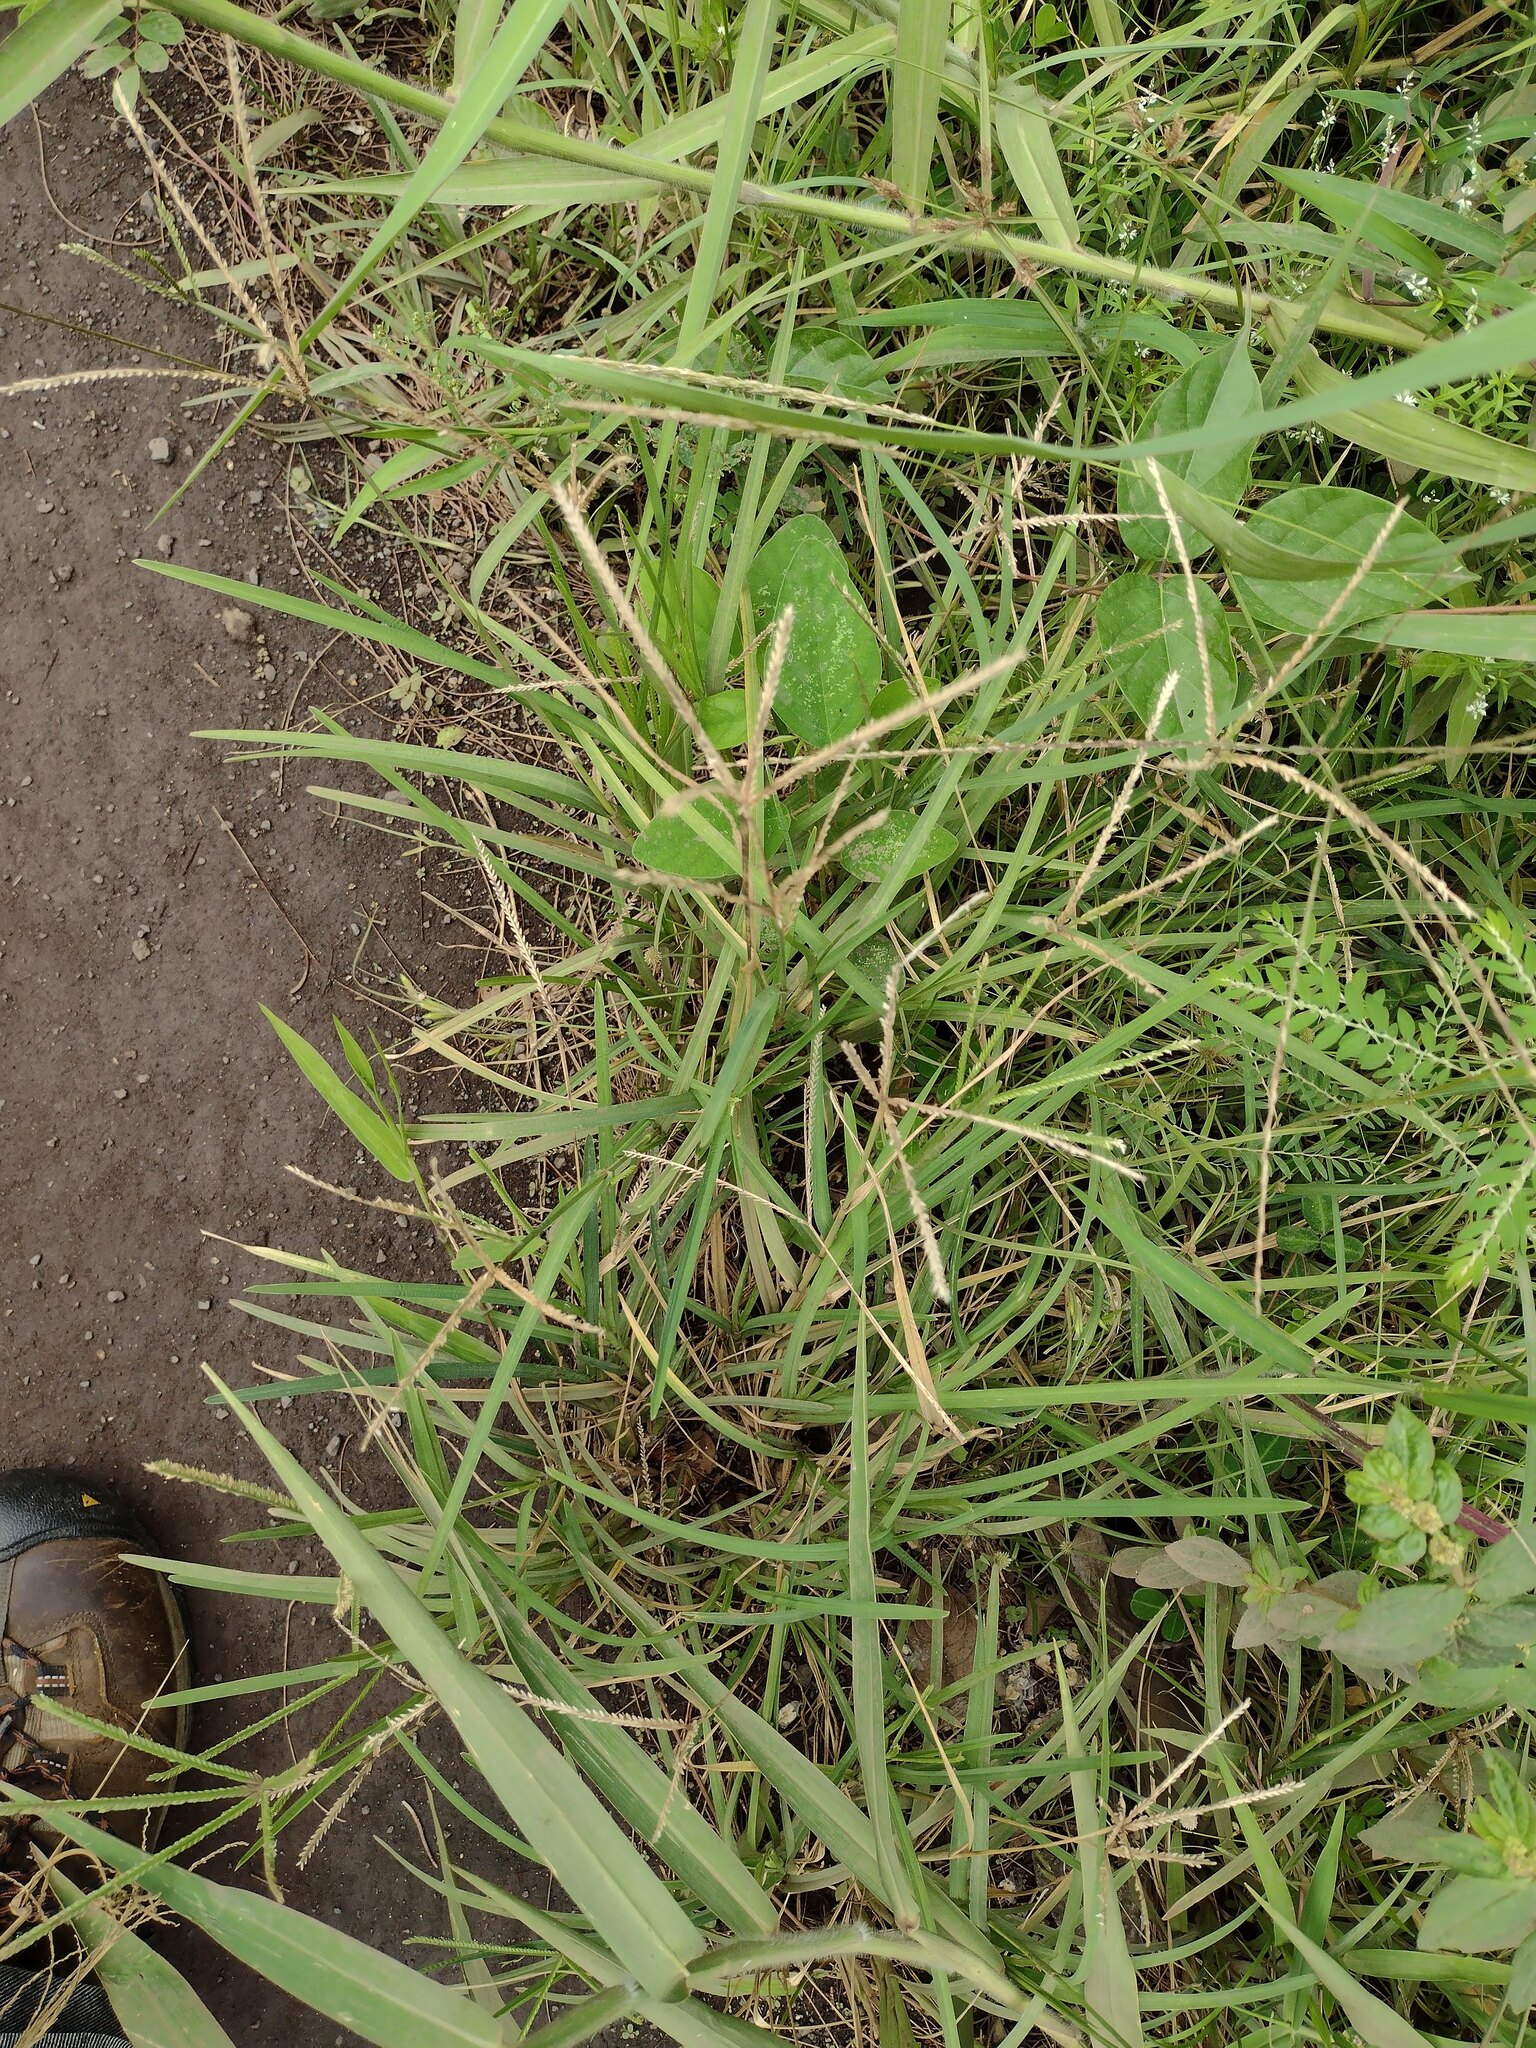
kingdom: Plantae
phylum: Tracheophyta
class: Liliopsida
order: Poales
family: Poaceae
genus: Eleusine
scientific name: Eleusine indica
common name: Yard-grass
